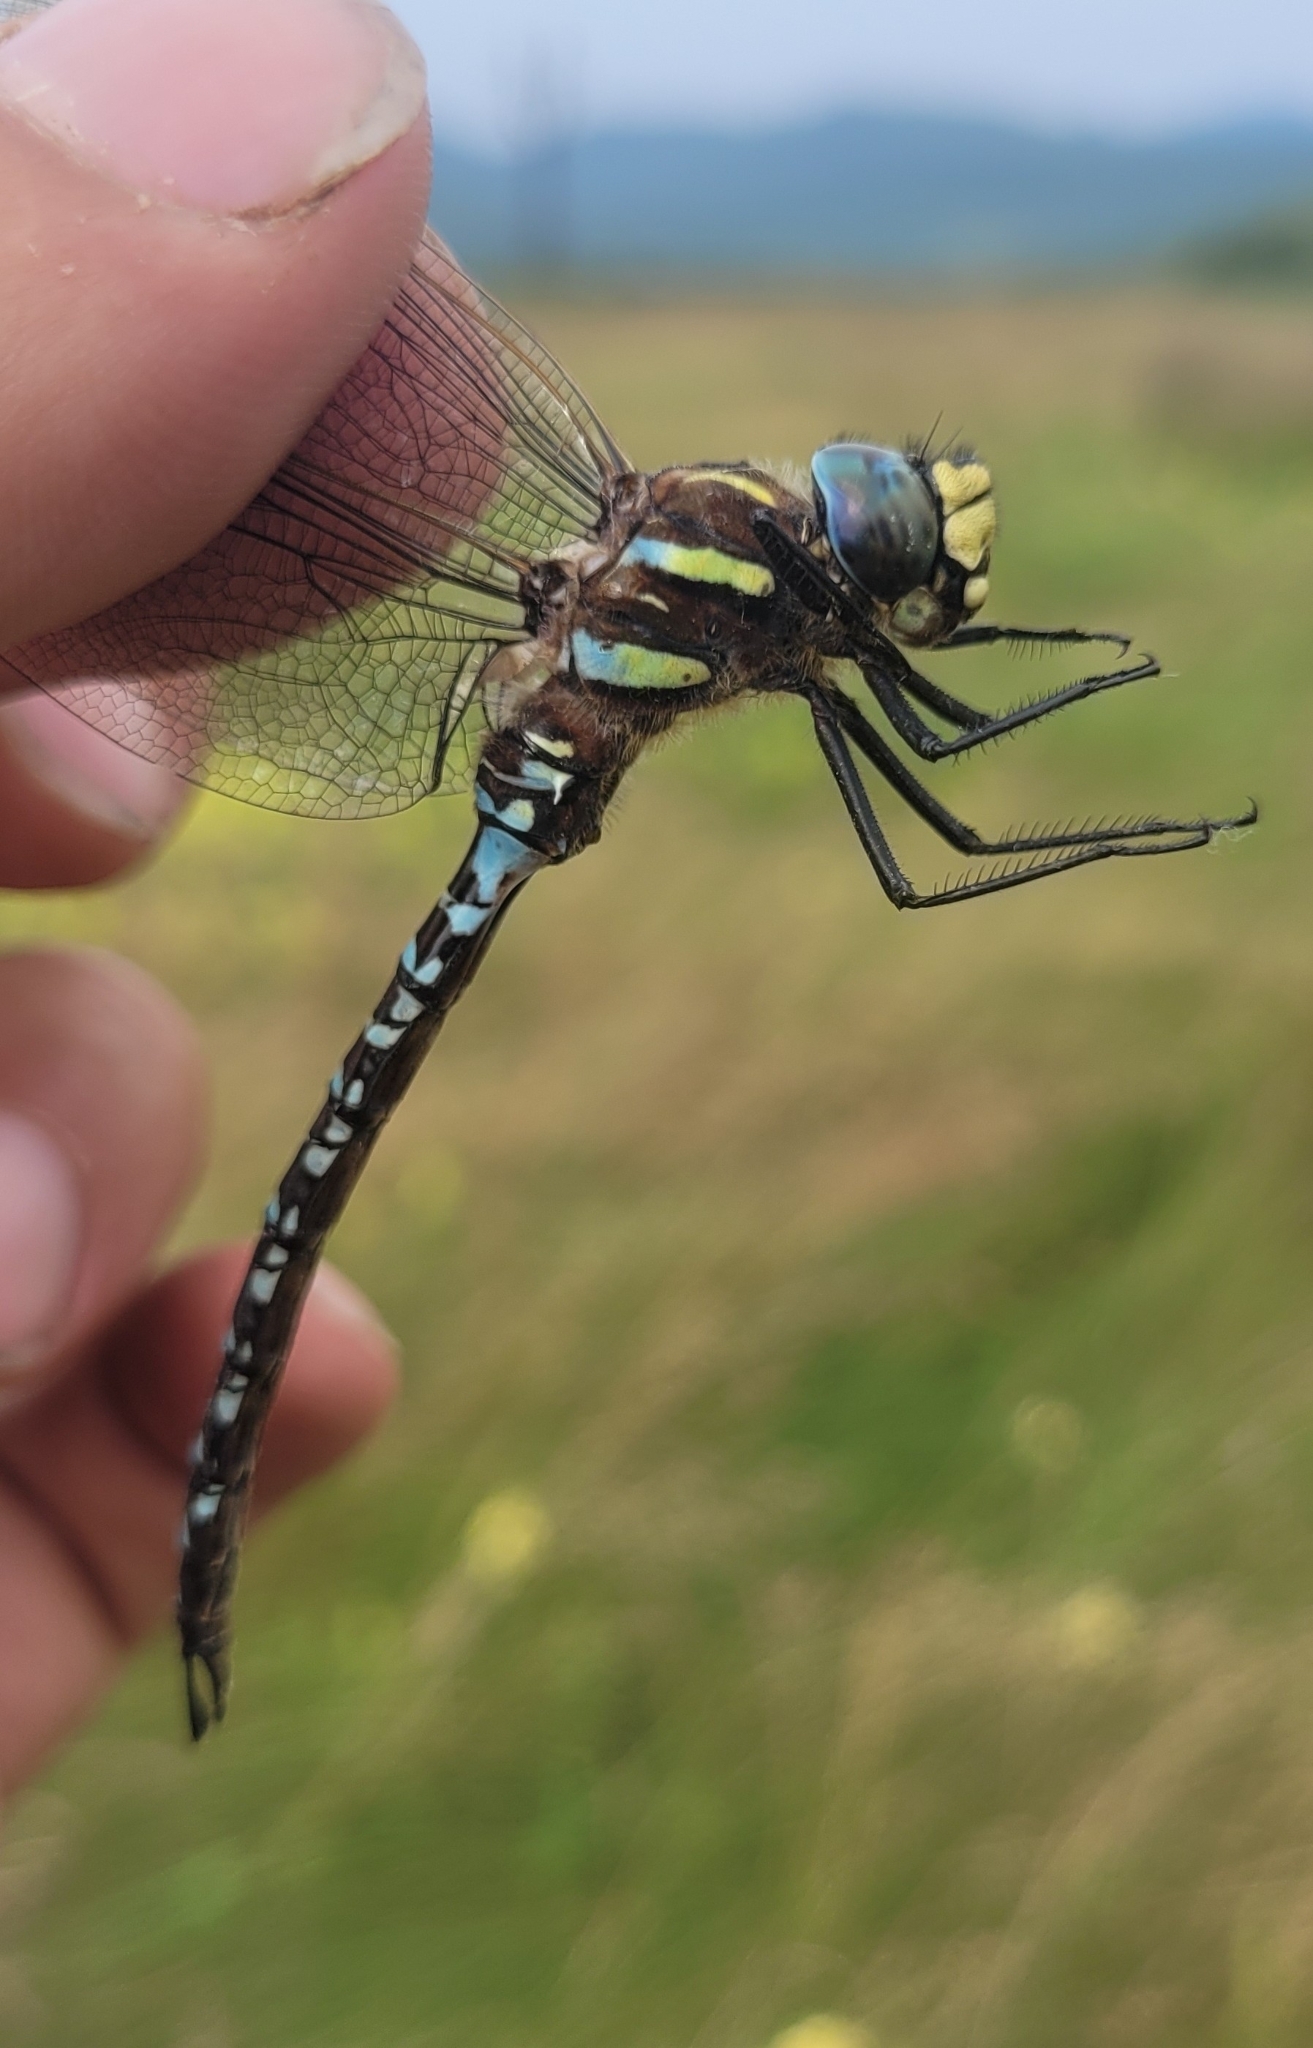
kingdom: Animalia
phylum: Arthropoda
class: Insecta
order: Odonata
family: Aeshnidae
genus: Aeshna
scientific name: Aeshna juncea
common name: Moorland hawker
